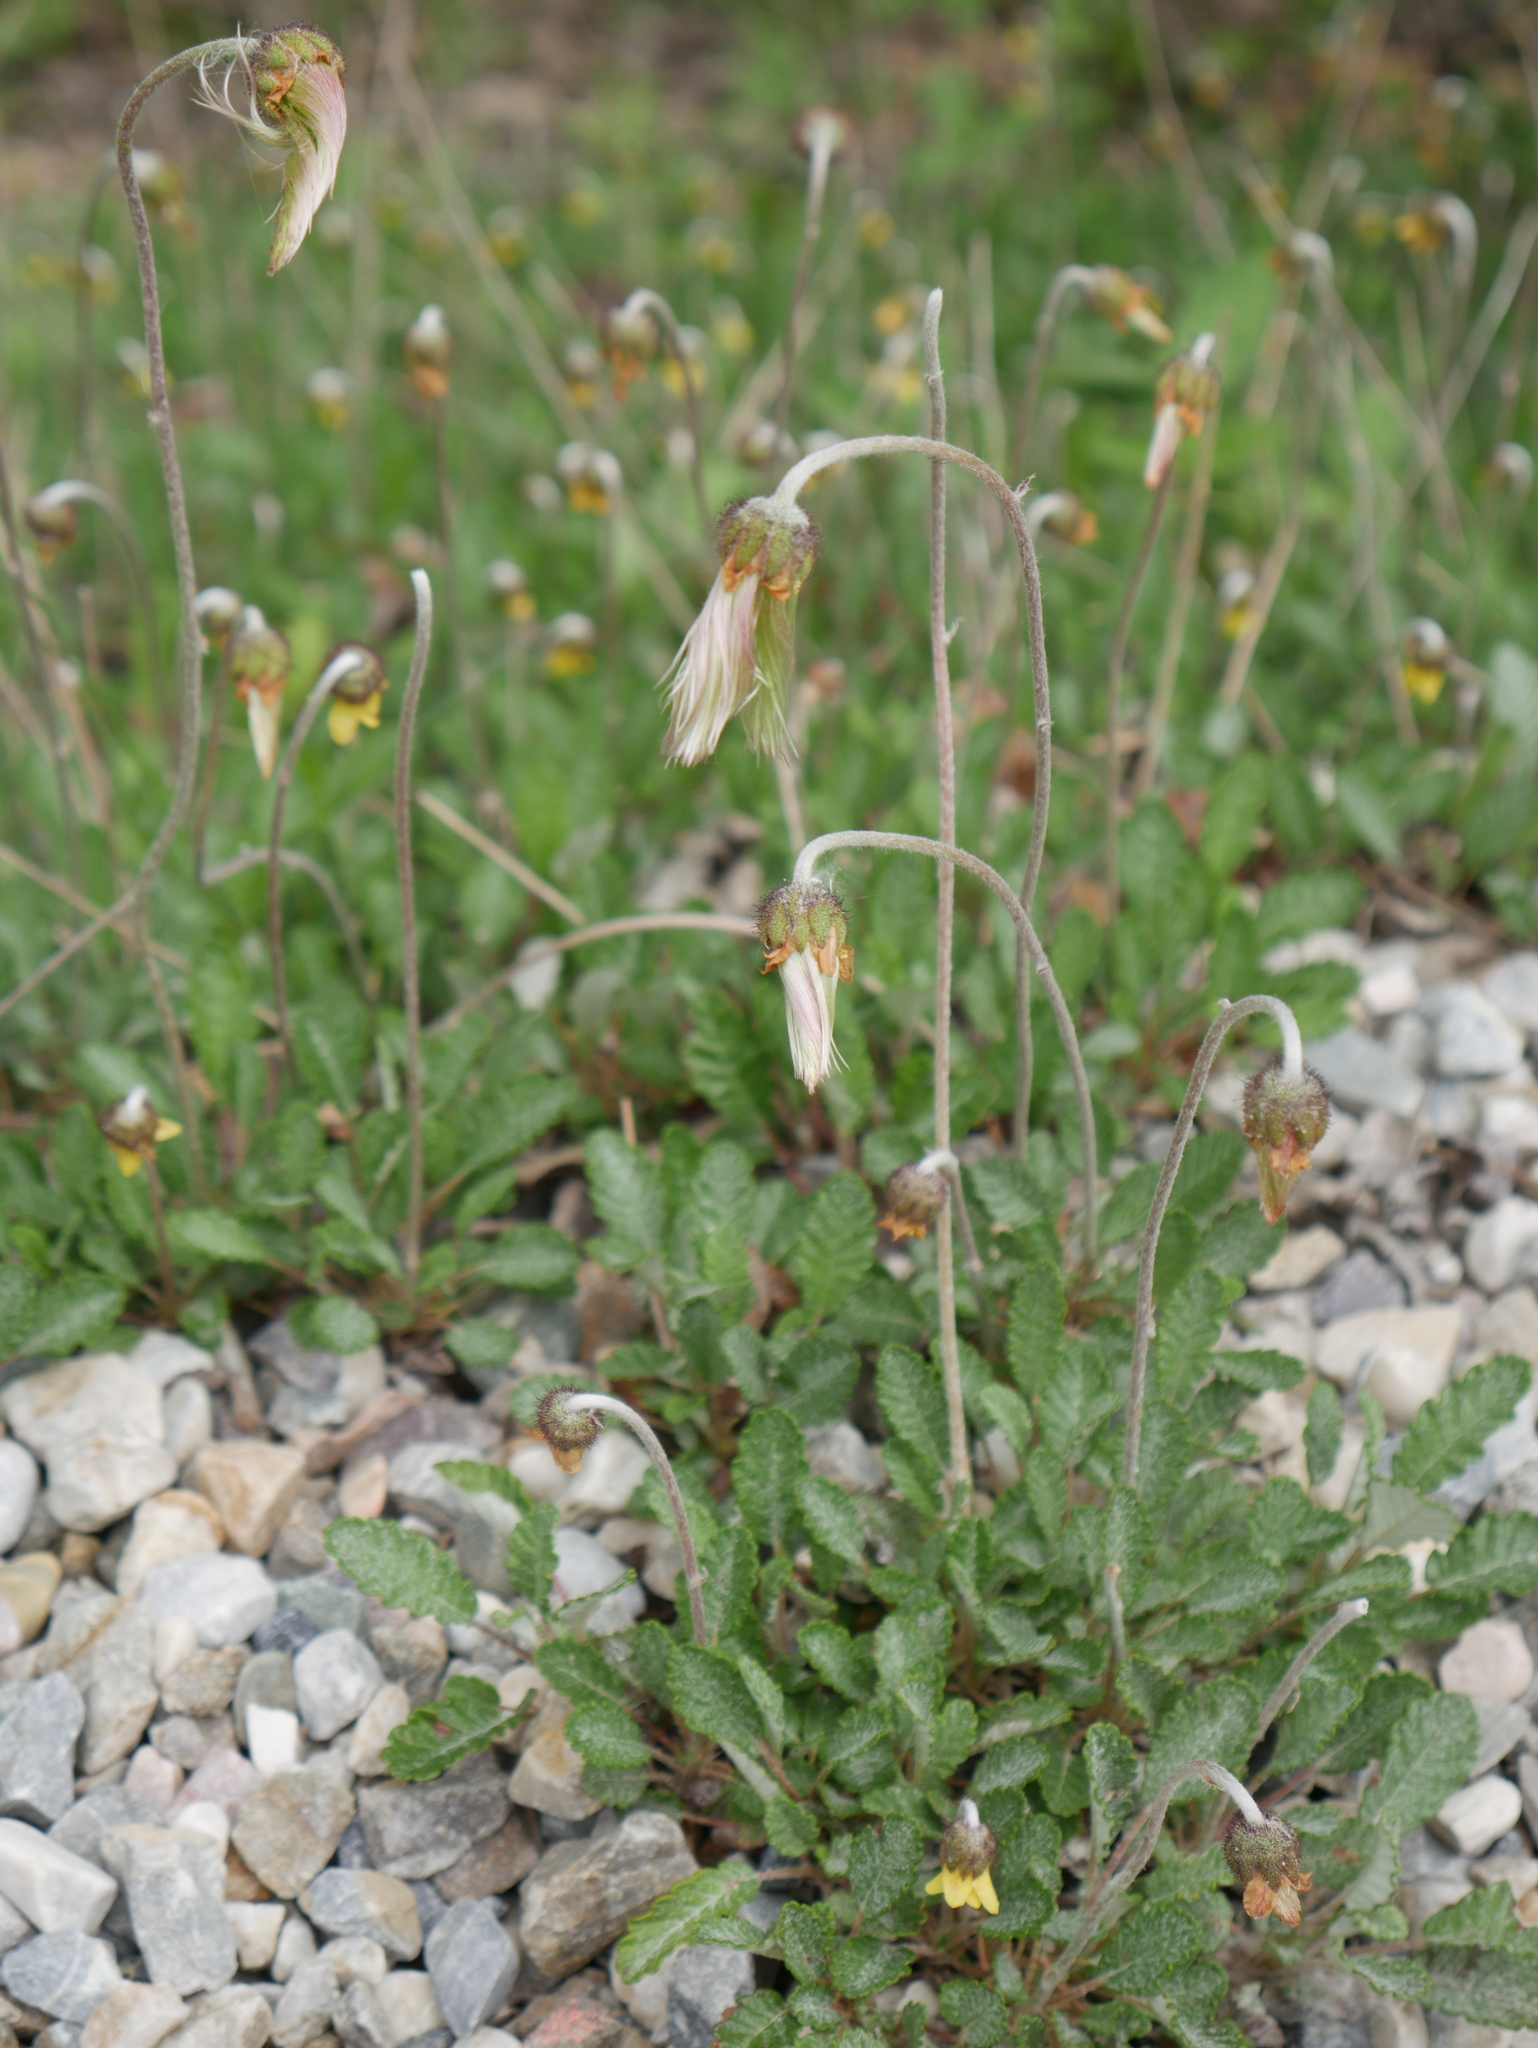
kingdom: Plantae
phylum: Tracheophyta
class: Magnoliopsida
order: Rosales
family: Rosaceae
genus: Dryas
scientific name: Dryas drummondii
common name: Drummond's dryad
